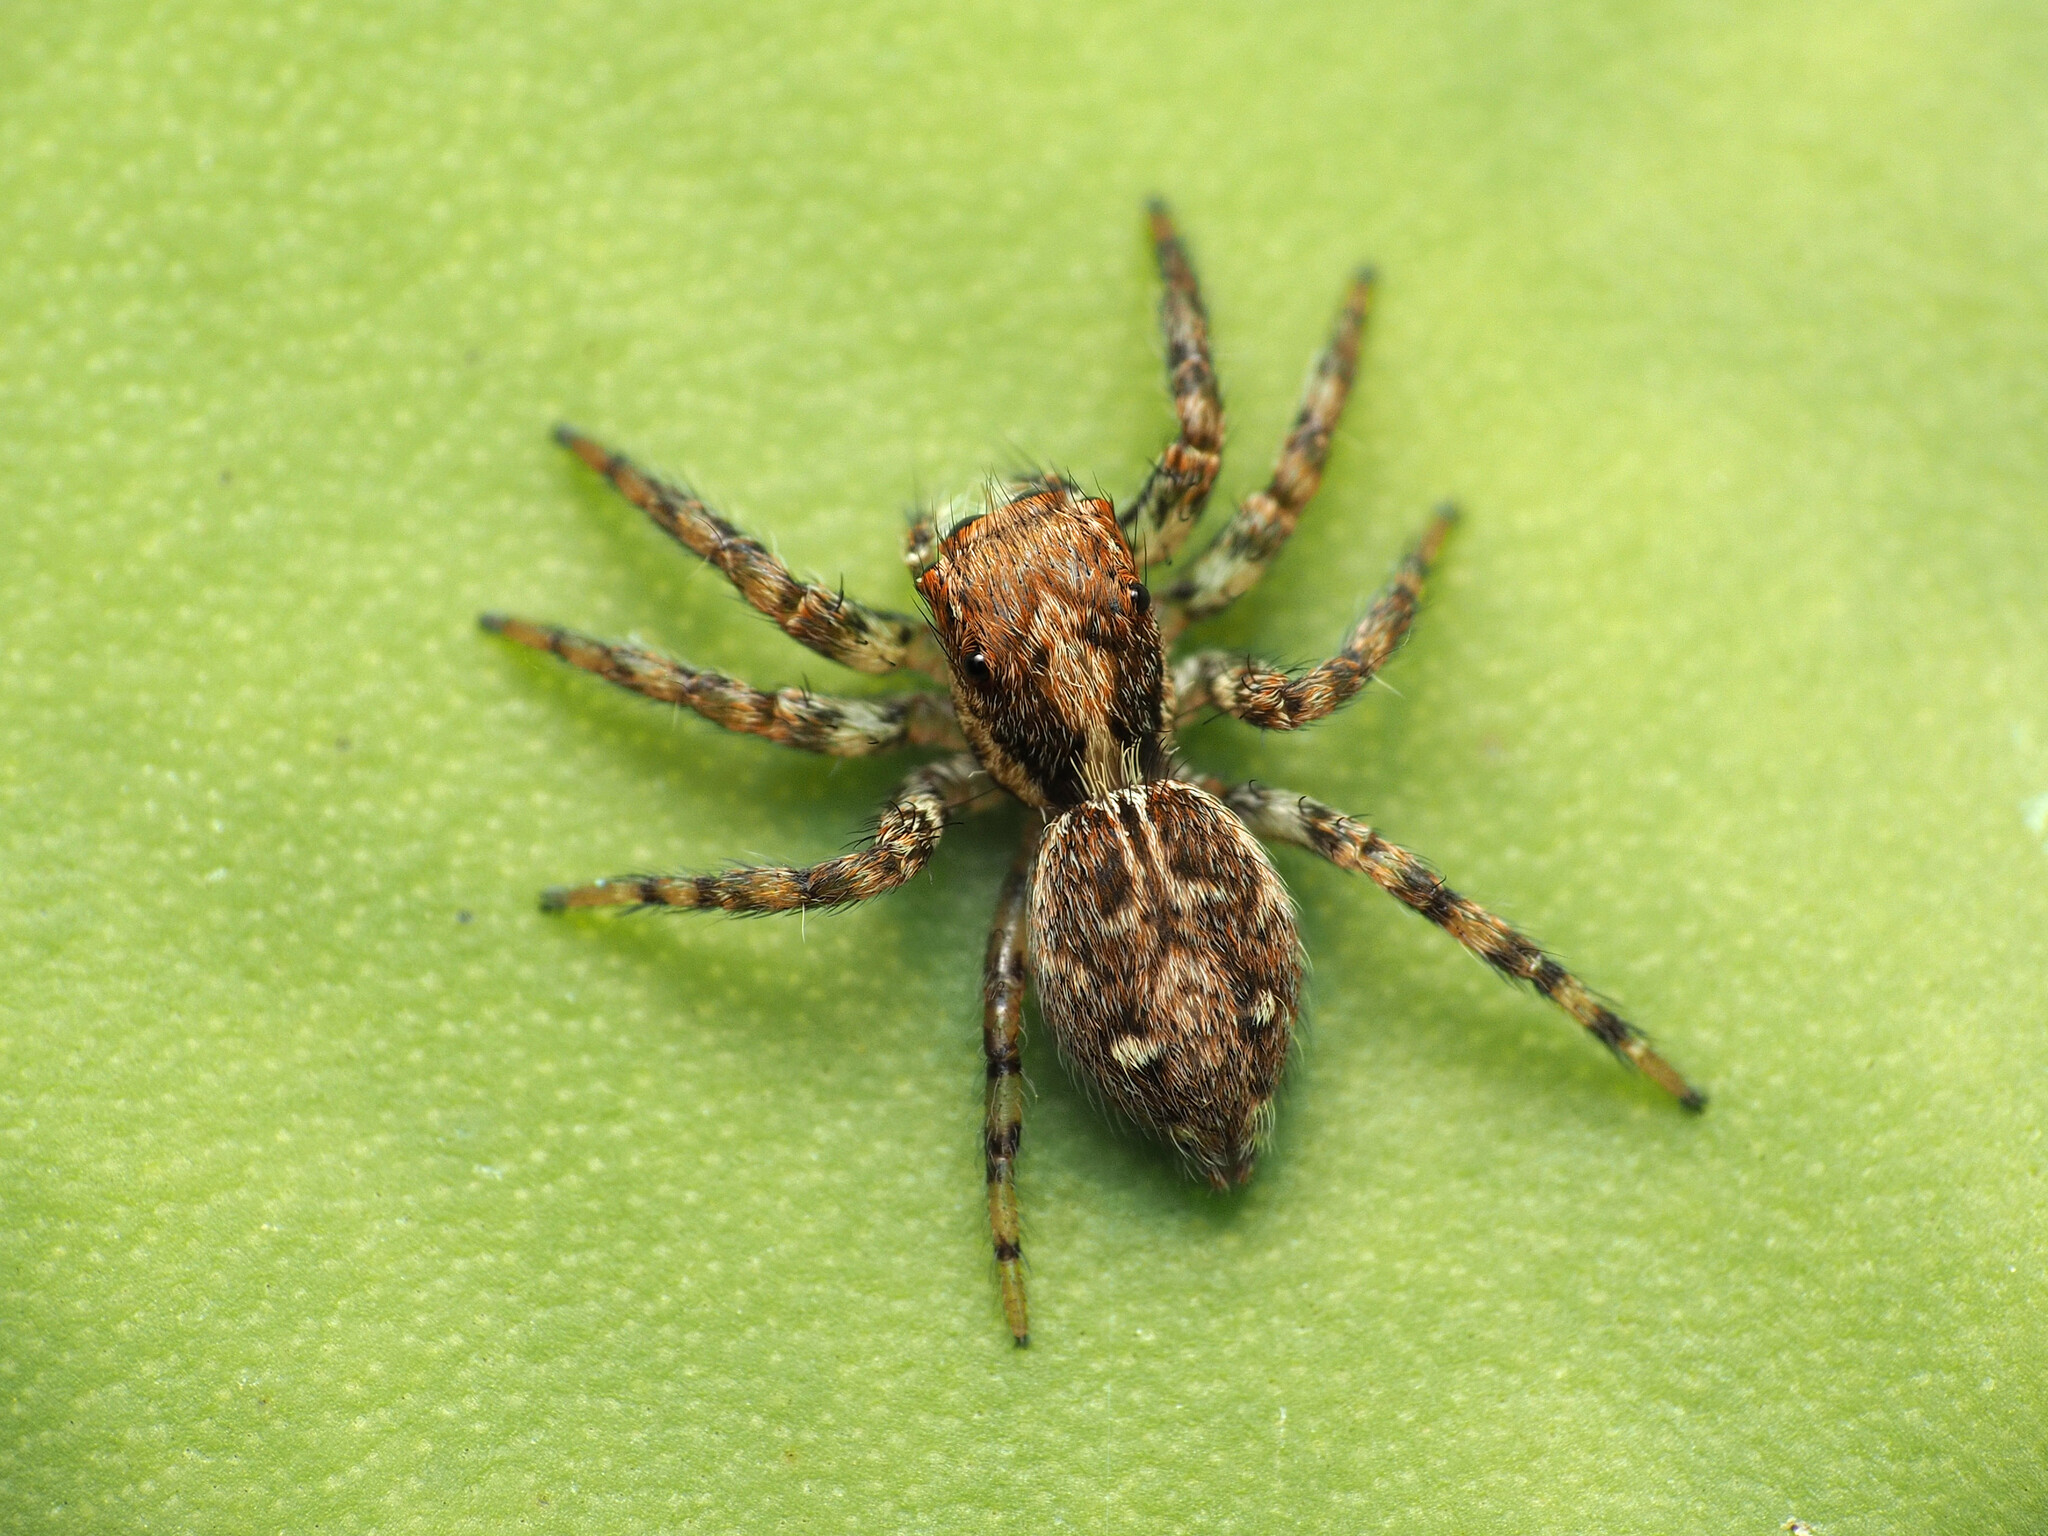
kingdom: Animalia
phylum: Arthropoda
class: Arachnida
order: Araneae
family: Salticidae
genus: Plexippus
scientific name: Plexippus paykulli
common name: Pantropical jumper
